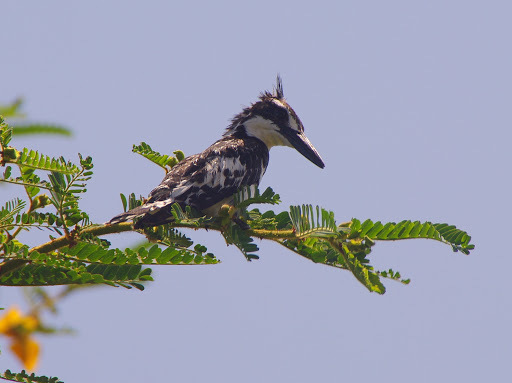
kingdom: Animalia
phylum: Chordata
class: Aves
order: Coraciiformes
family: Alcedinidae
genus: Ceryle
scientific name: Ceryle rudis
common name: Pied kingfisher
